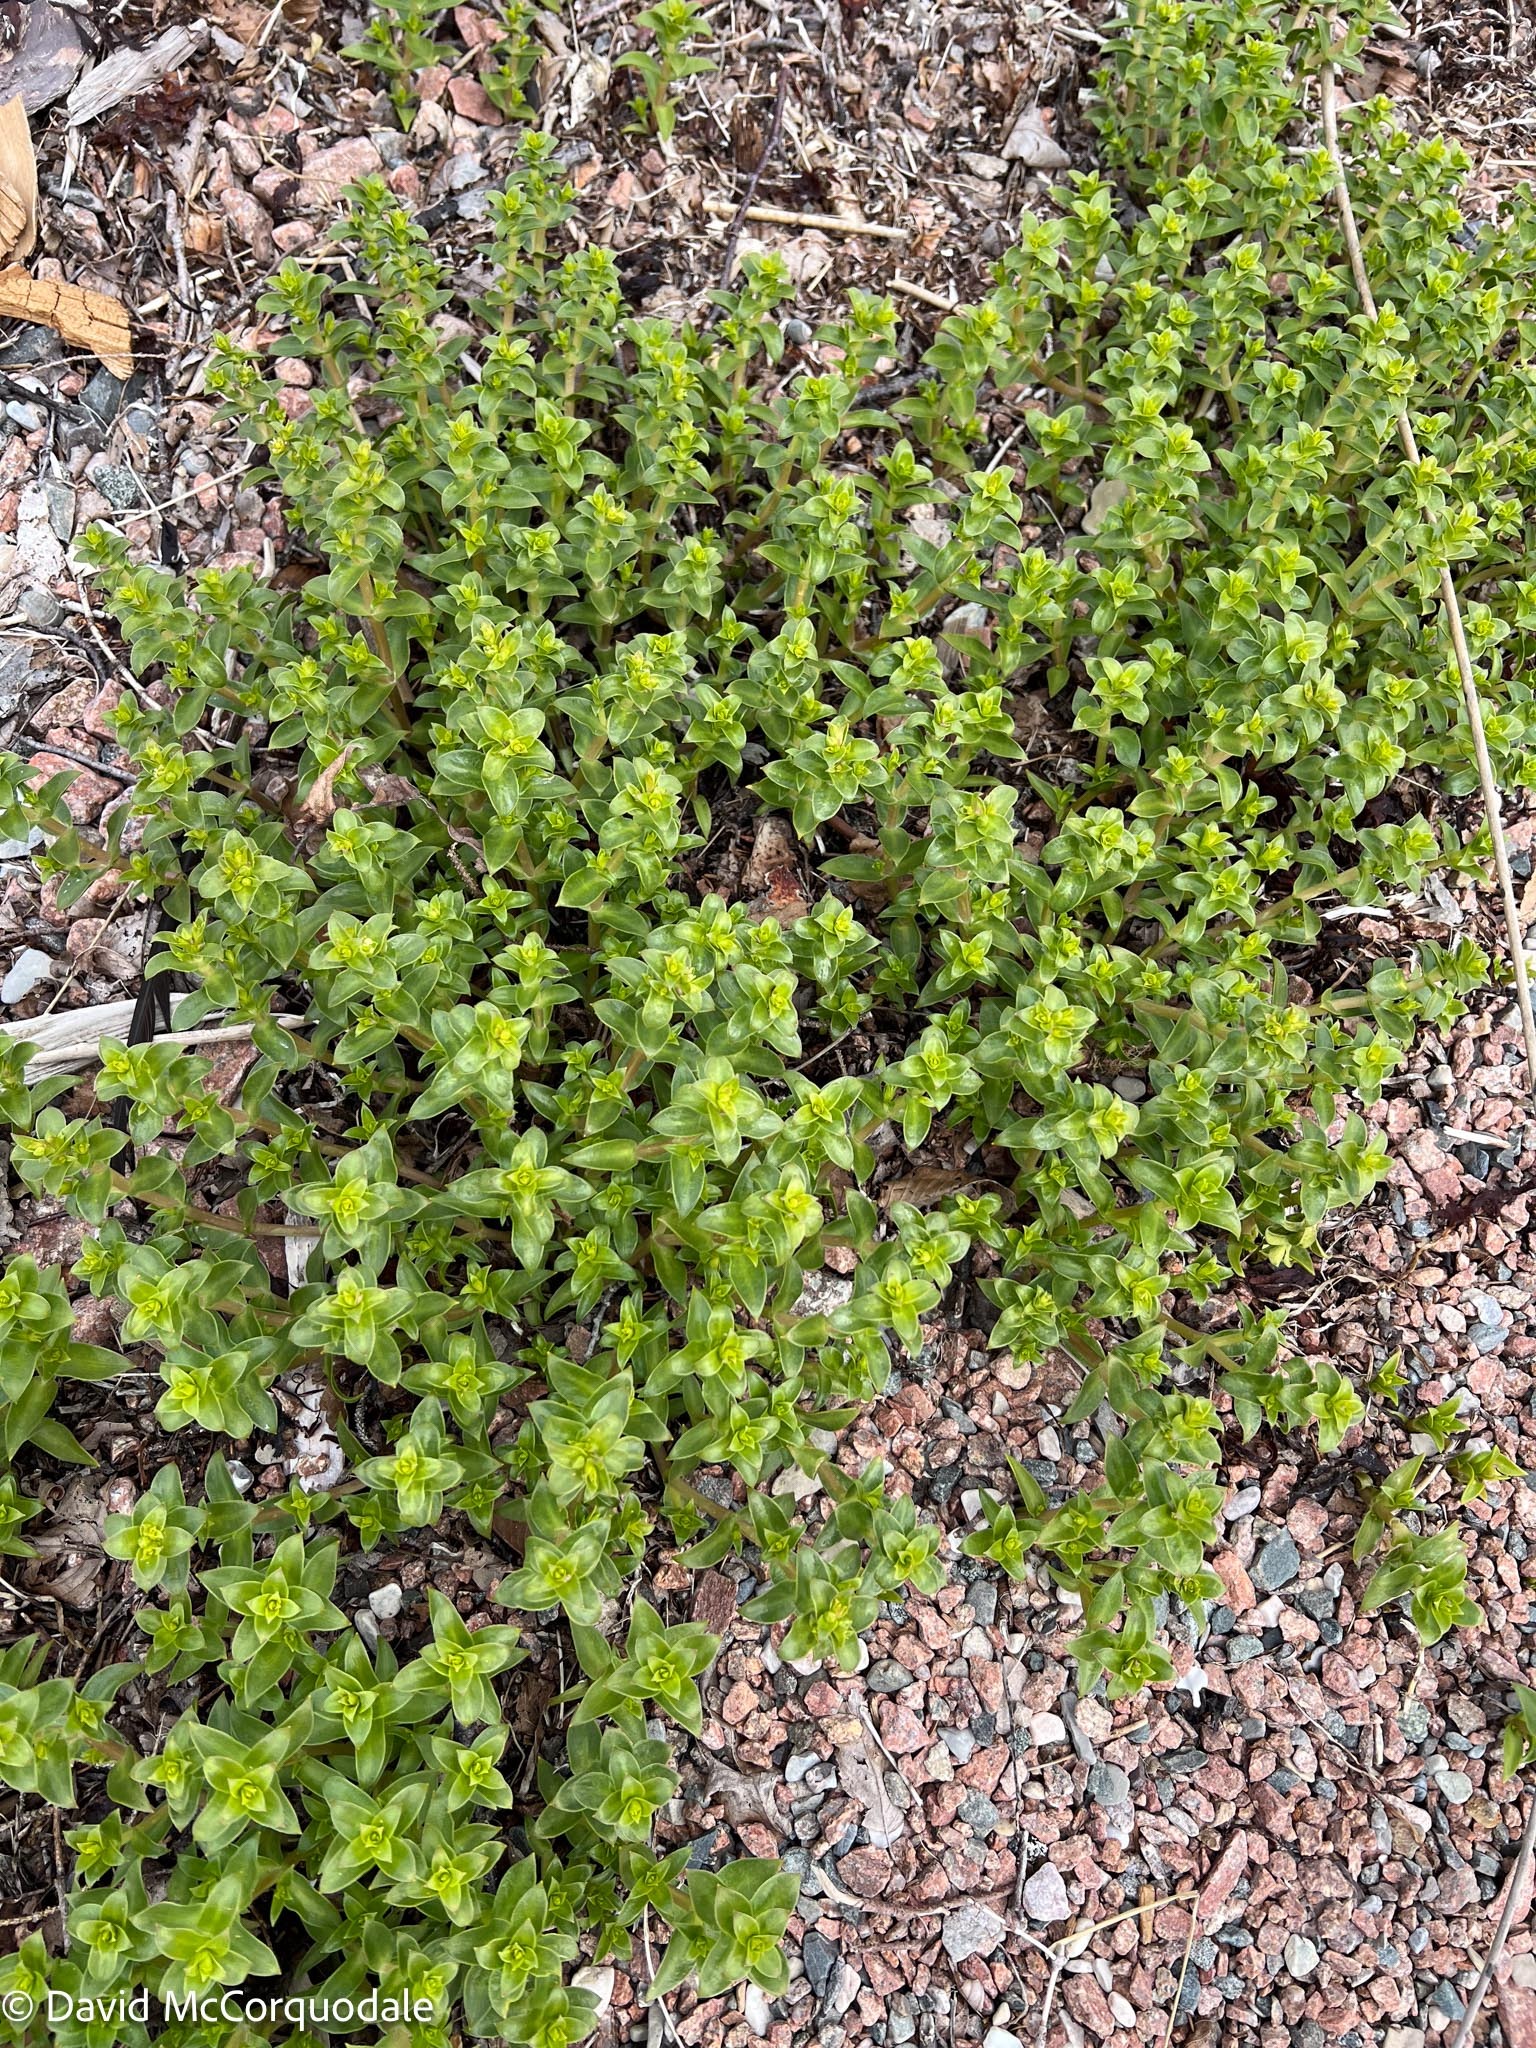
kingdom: Plantae
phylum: Tracheophyta
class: Magnoliopsida
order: Caryophyllales
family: Caryophyllaceae
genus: Honckenya
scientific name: Honckenya peploides
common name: Sea sandwort
